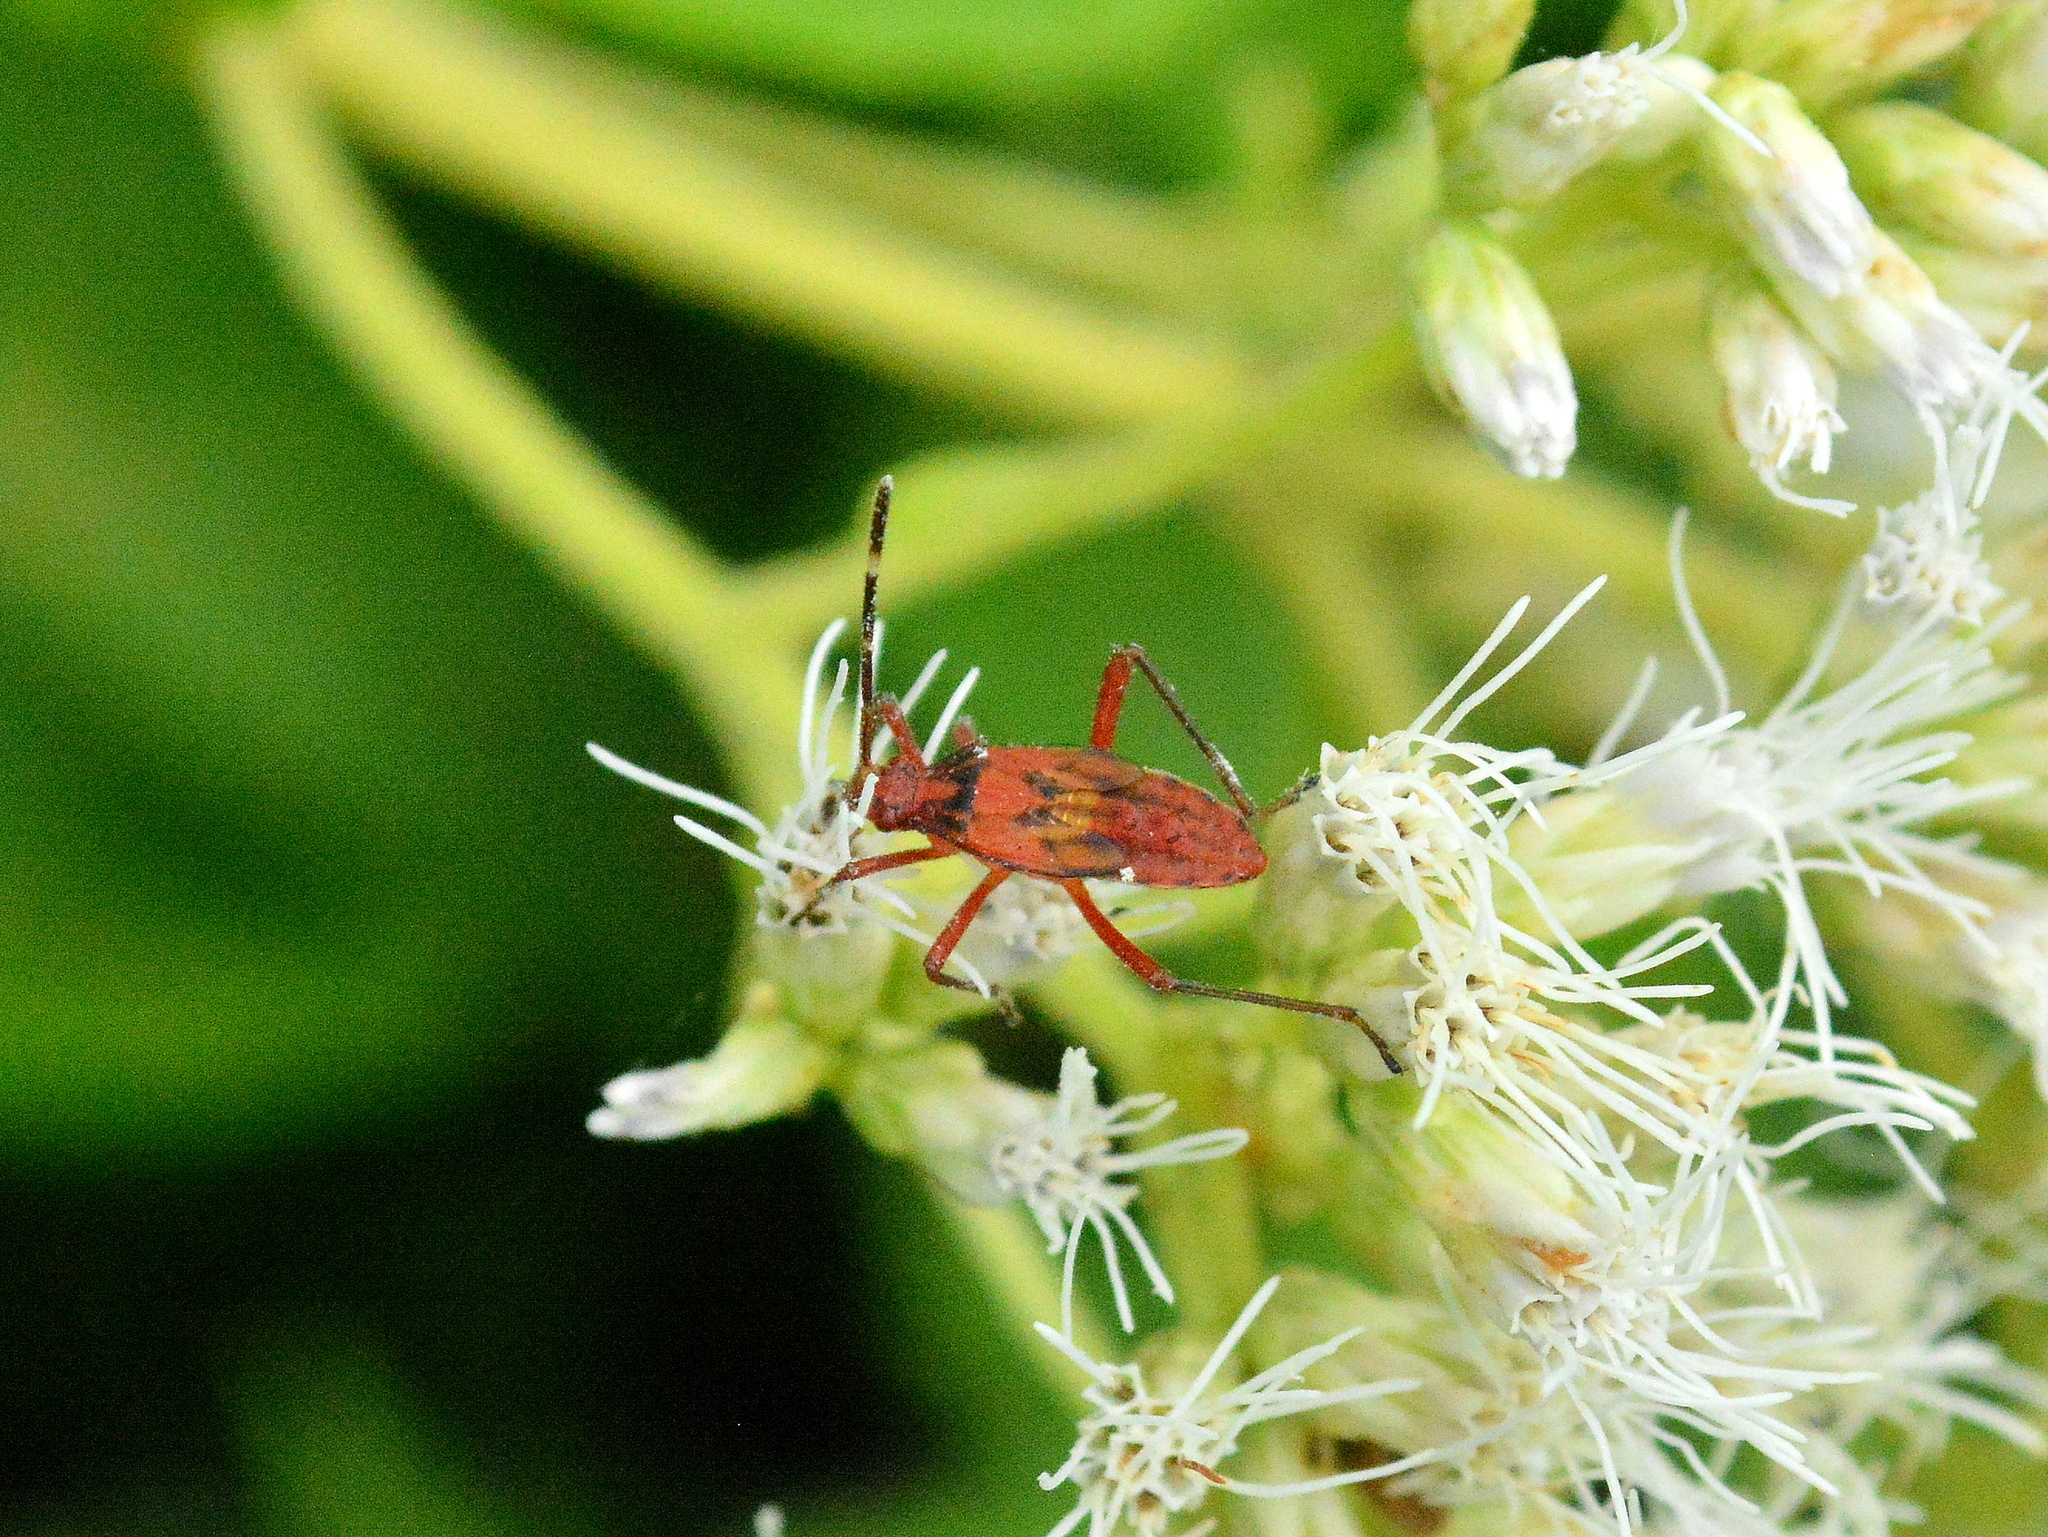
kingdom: Animalia
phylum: Arthropoda
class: Insecta
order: Hemiptera
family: Coreidae
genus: Hypselonotus
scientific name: Hypselonotus interruptus
